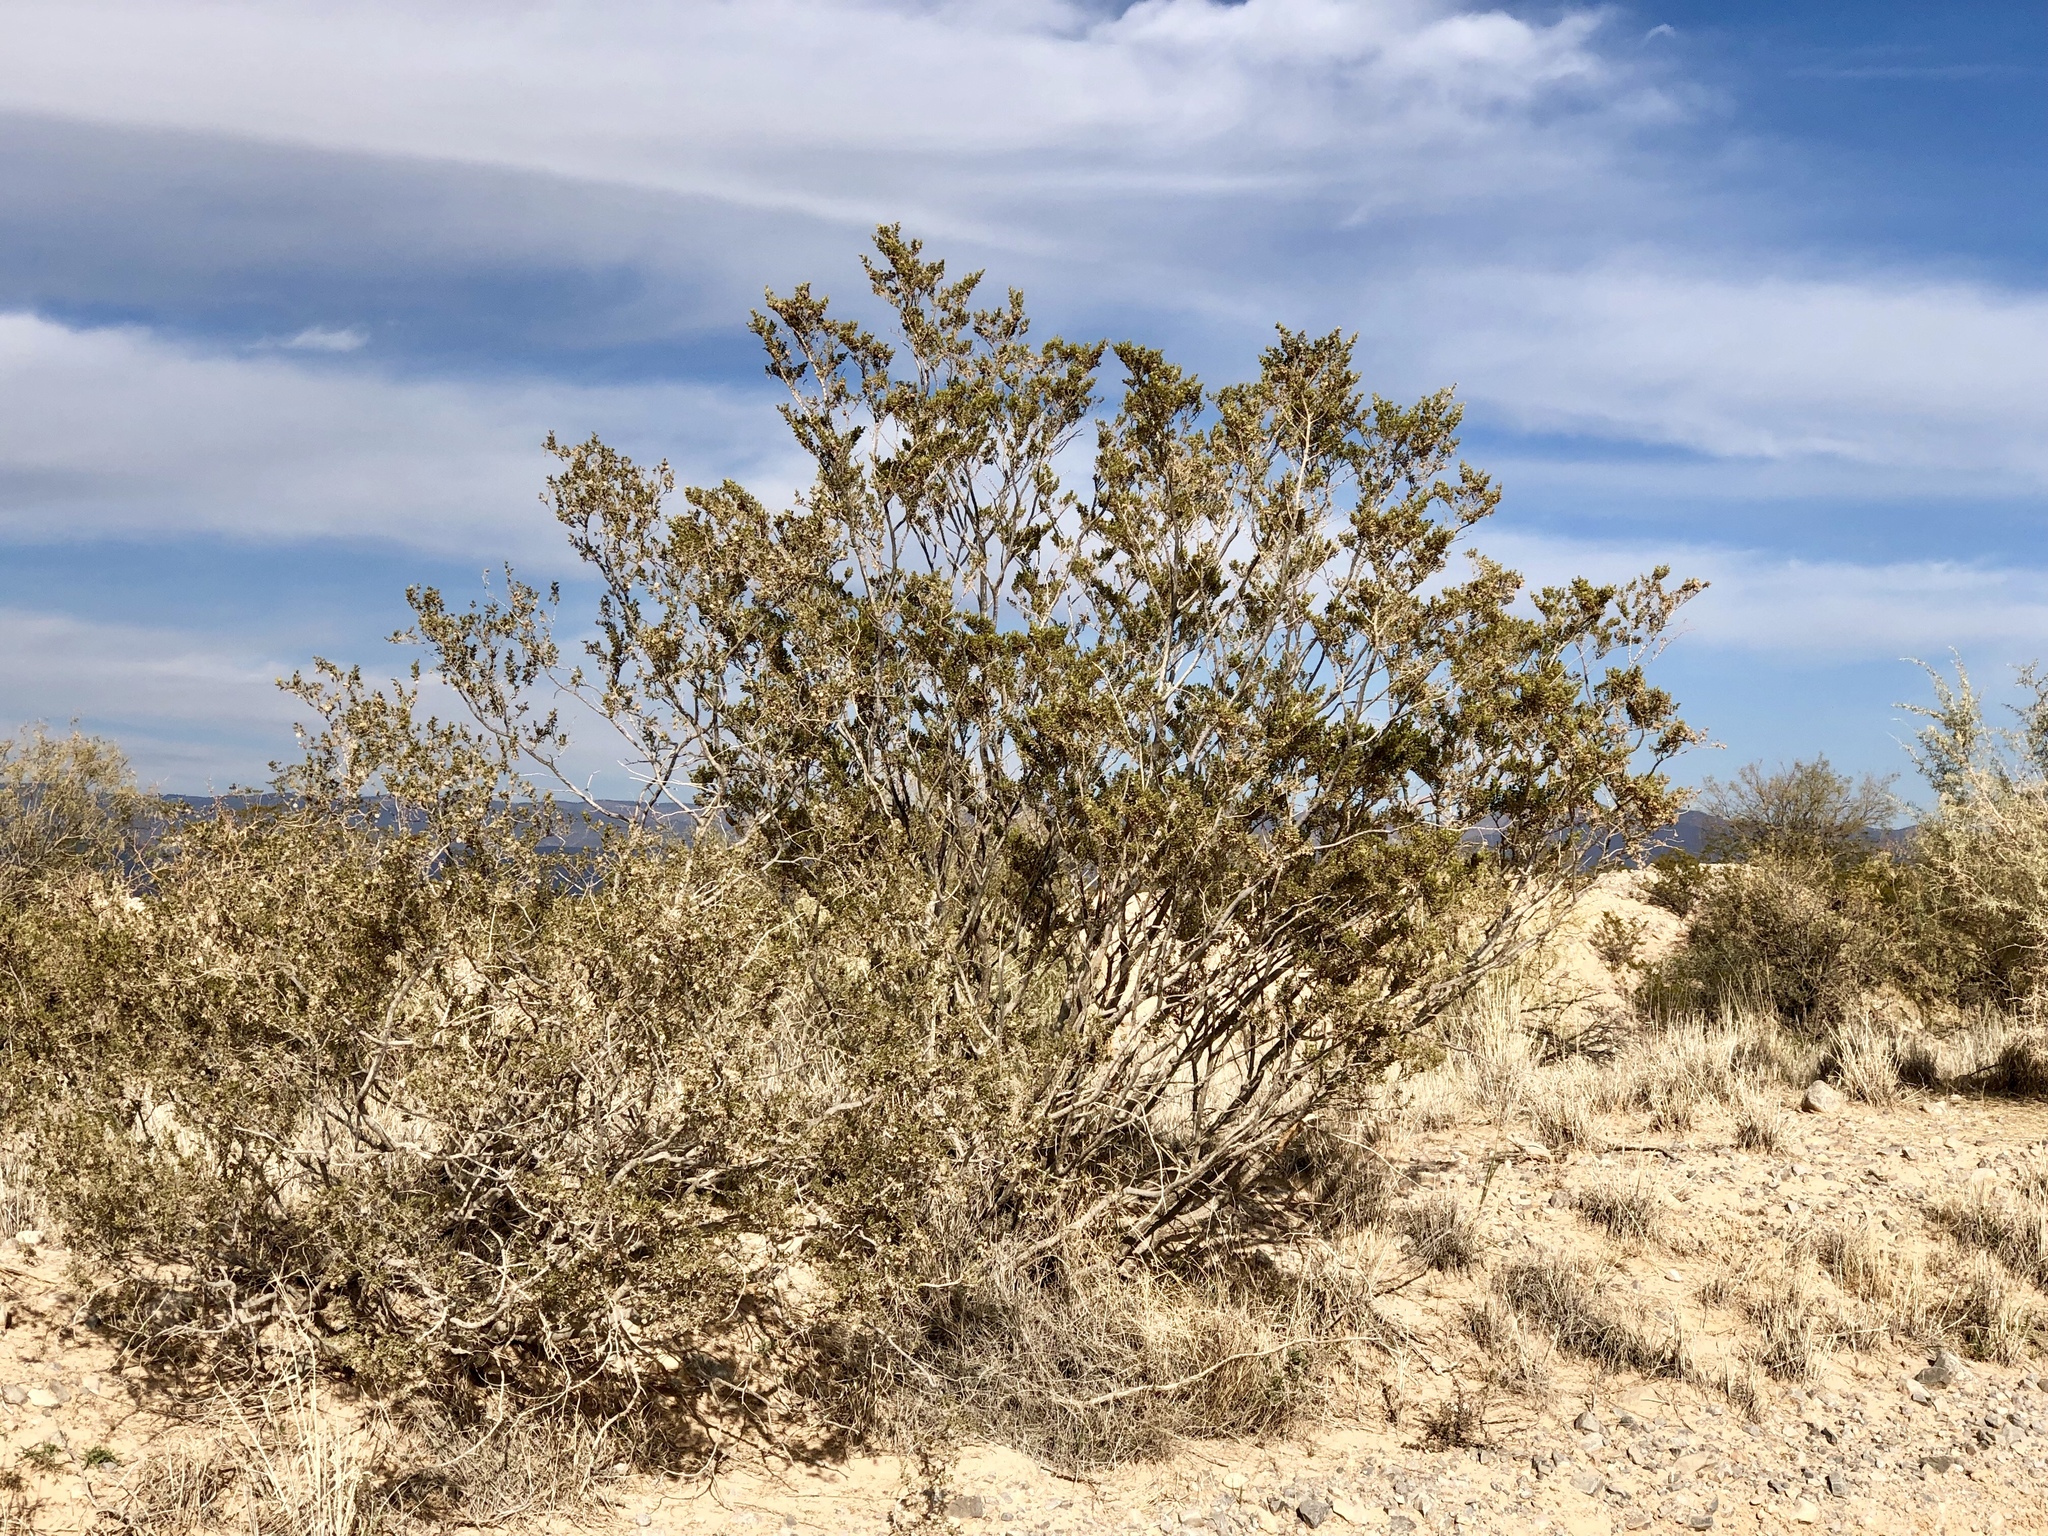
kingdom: Plantae
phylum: Tracheophyta
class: Magnoliopsida
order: Zygophyllales
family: Zygophyllaceae
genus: Larrea
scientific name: Larrea tridentata
